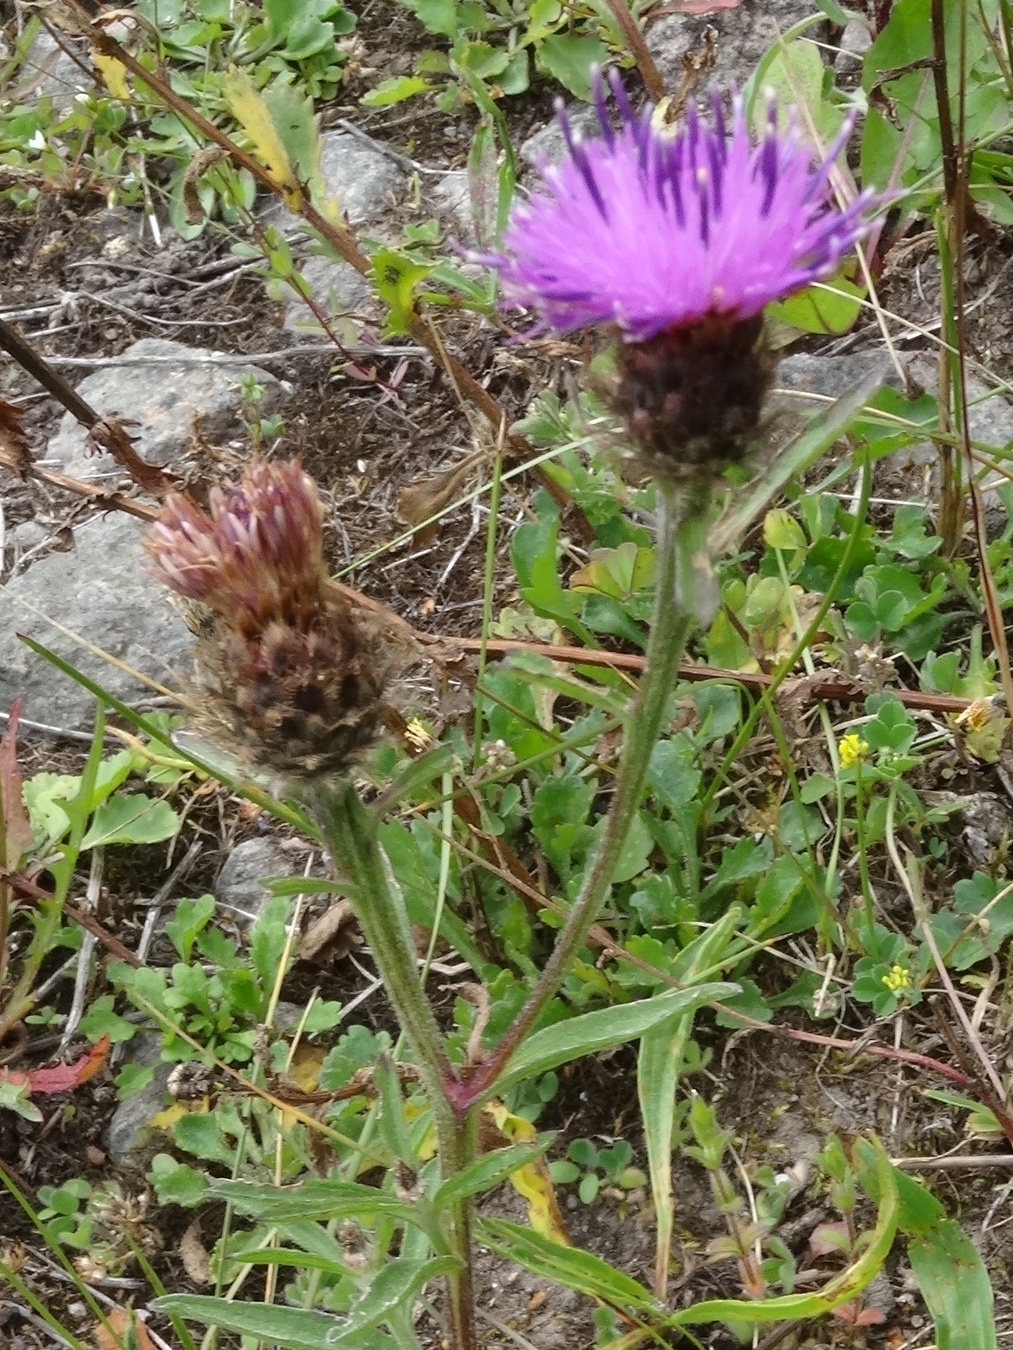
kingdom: Plantae
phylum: Tracheophyta
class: Magnoliopsida
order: Asterales
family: Asteraceae
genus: Centaurea
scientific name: Centaurea nigra
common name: Lesser knapweed
